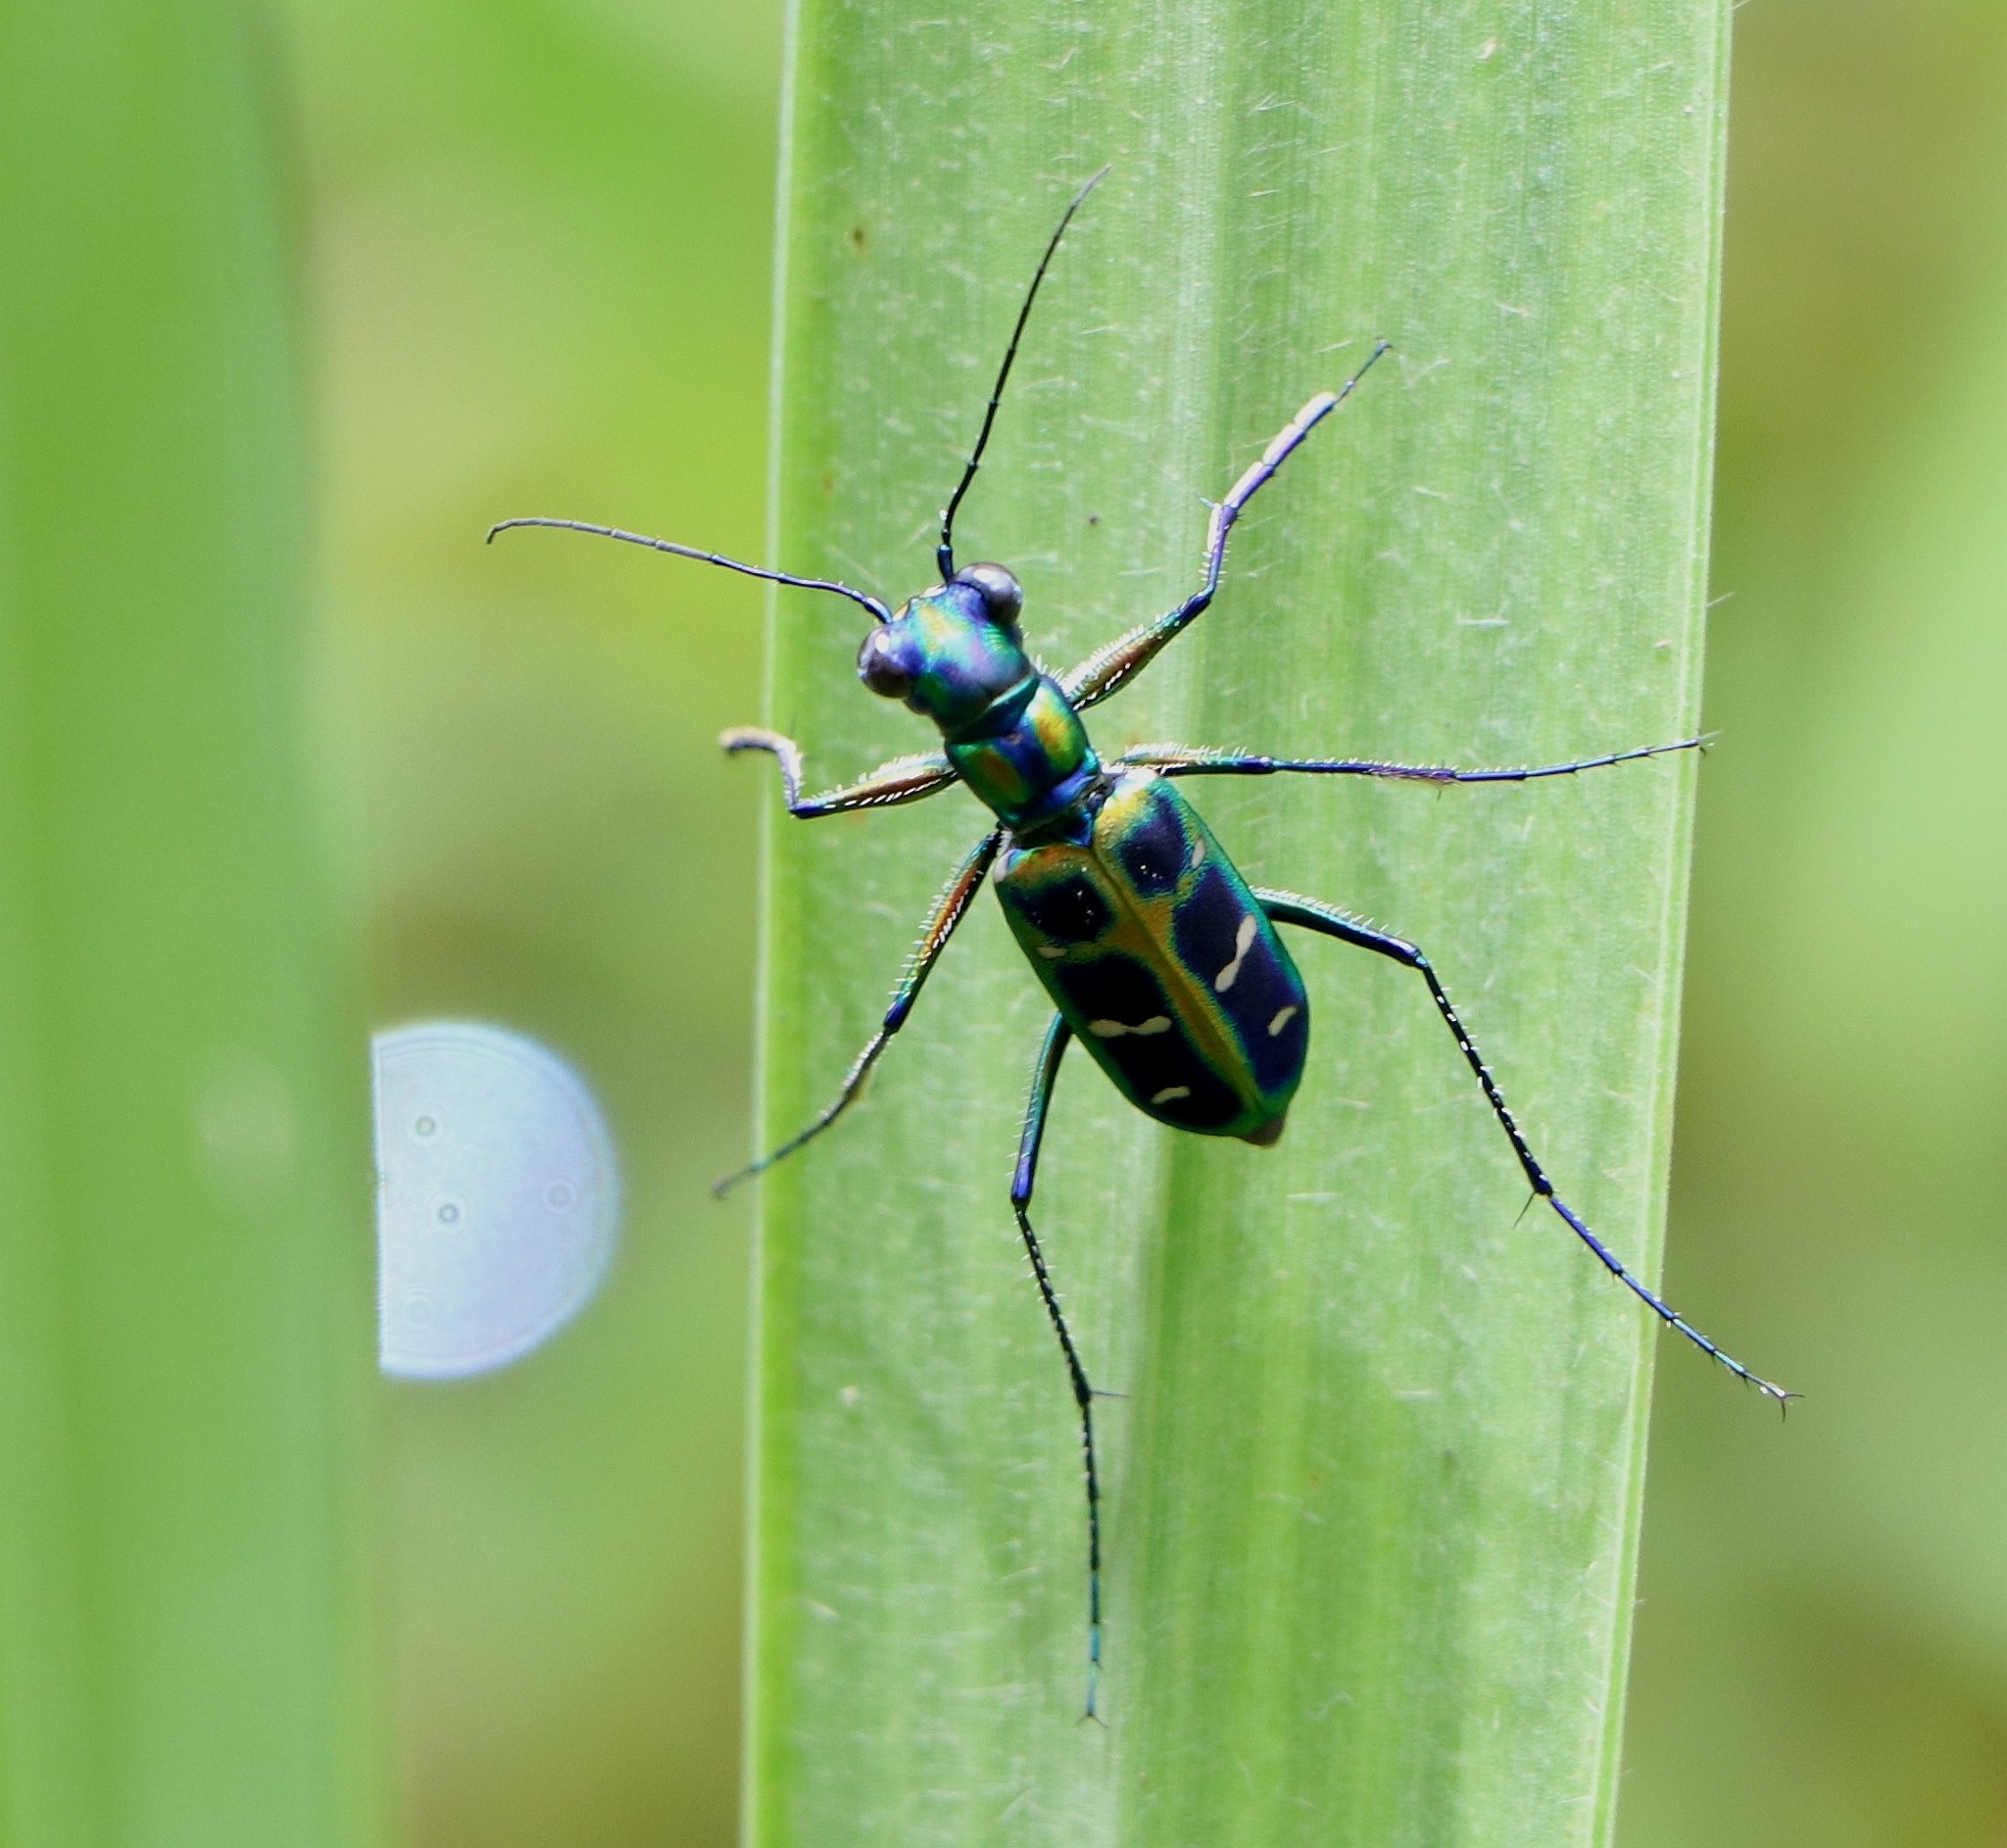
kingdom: Animalia
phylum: Arthropoda
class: Insecta
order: Coleoptera
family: Carabidae
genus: Cicindela
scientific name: Cicindela barmanica
